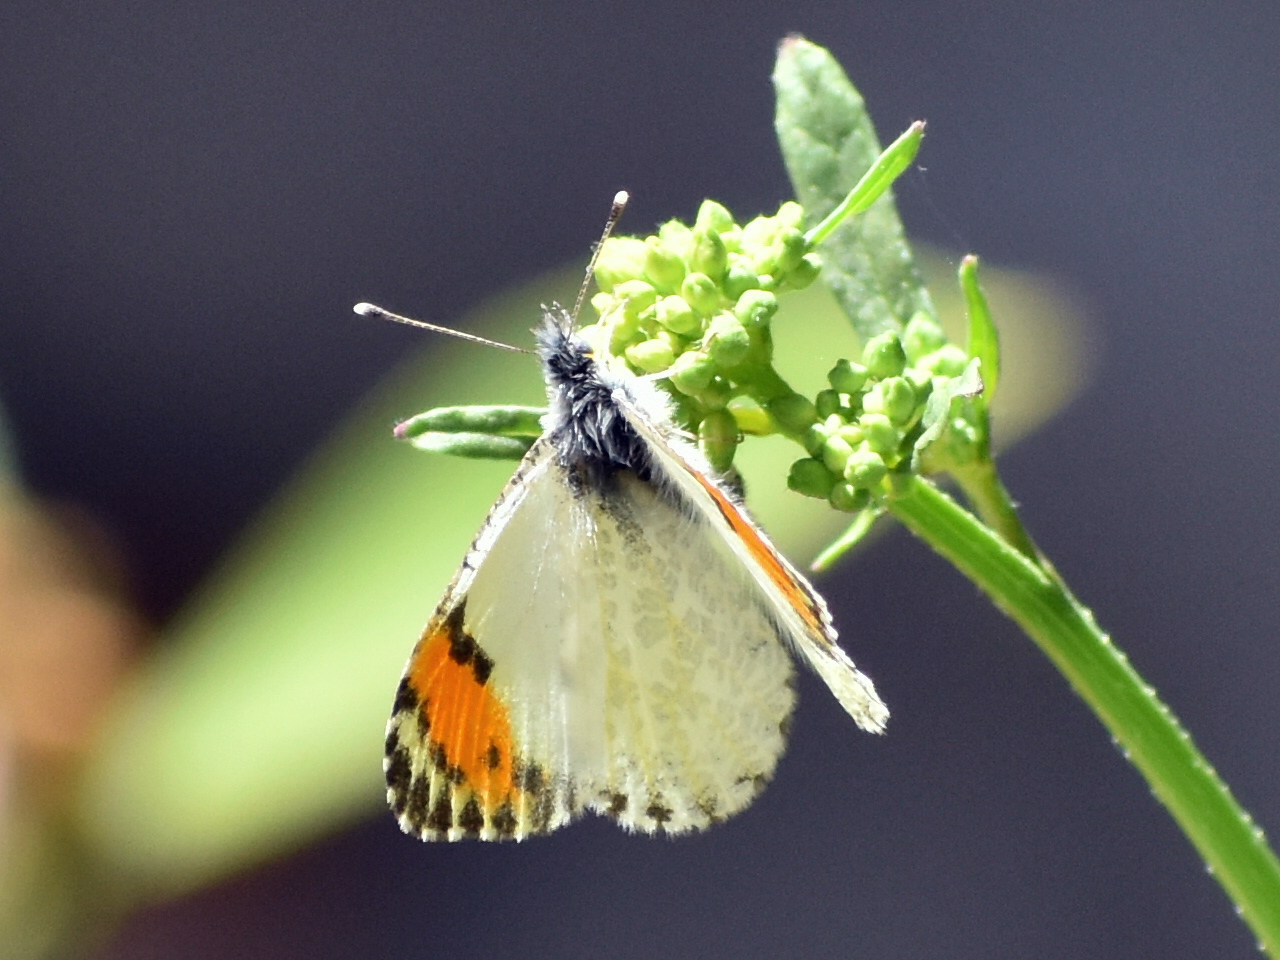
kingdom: Animalia
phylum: Arthropoda
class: Insecta
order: Lepidoptera
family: Pieridae
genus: Anthocharis
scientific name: Anthocharis sara
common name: Sara's orangetip
